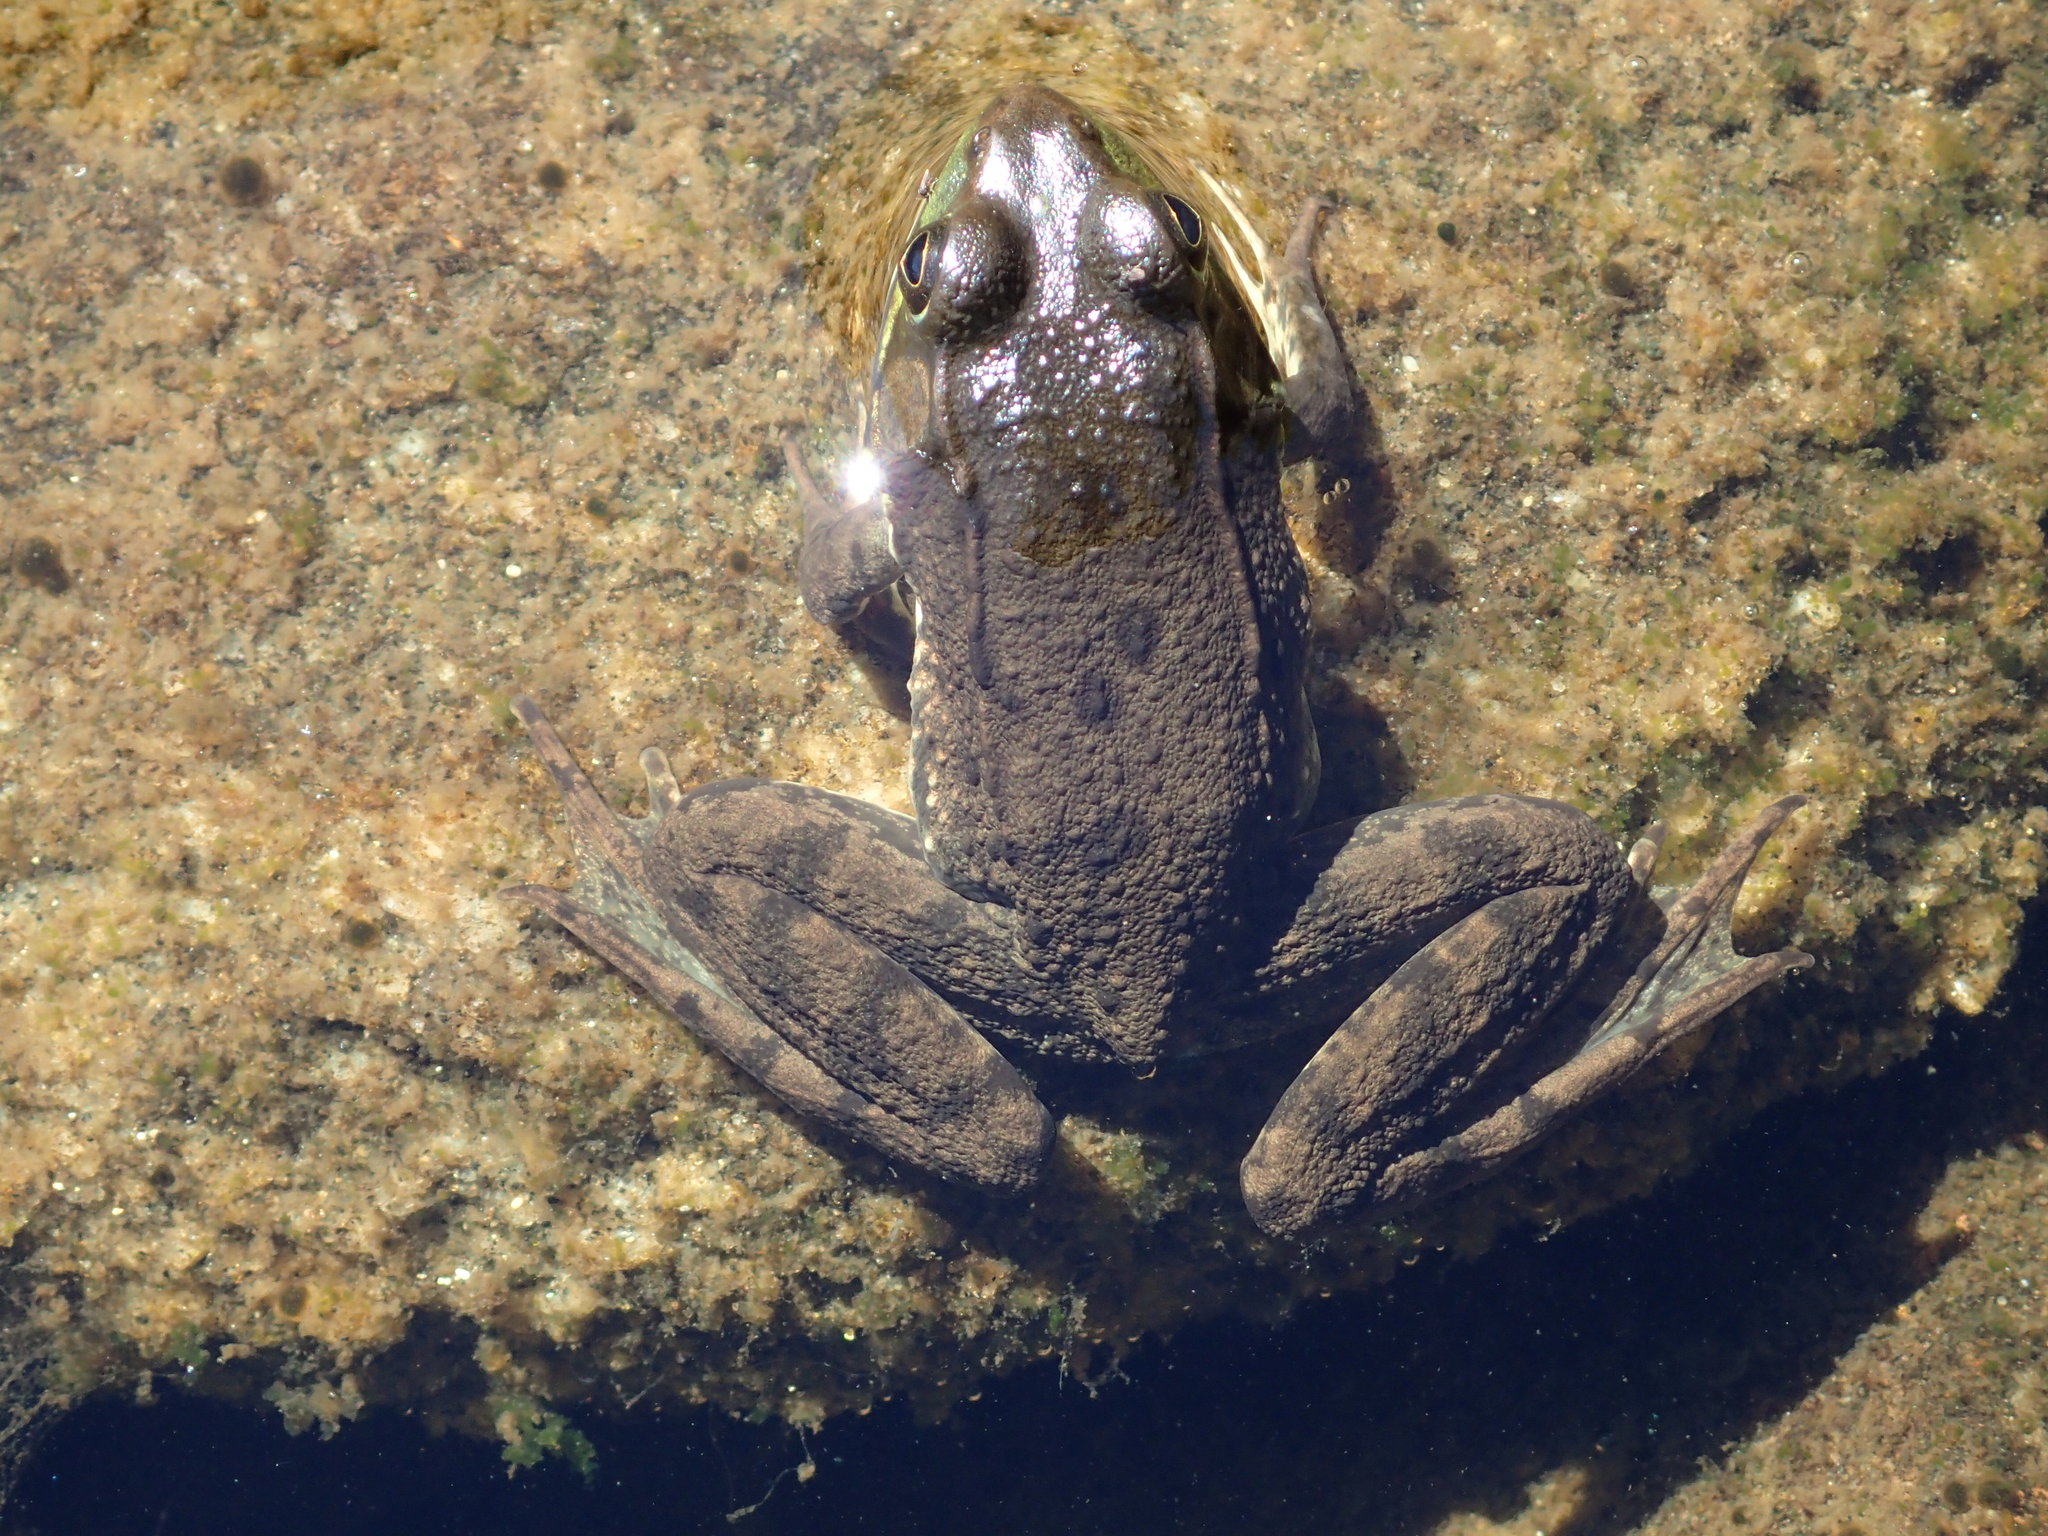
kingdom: Animalia
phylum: Chordata
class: Amphibia
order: Anura
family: Ranidae
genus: Lithobates
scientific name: Lithobates clamitans
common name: Green frog
